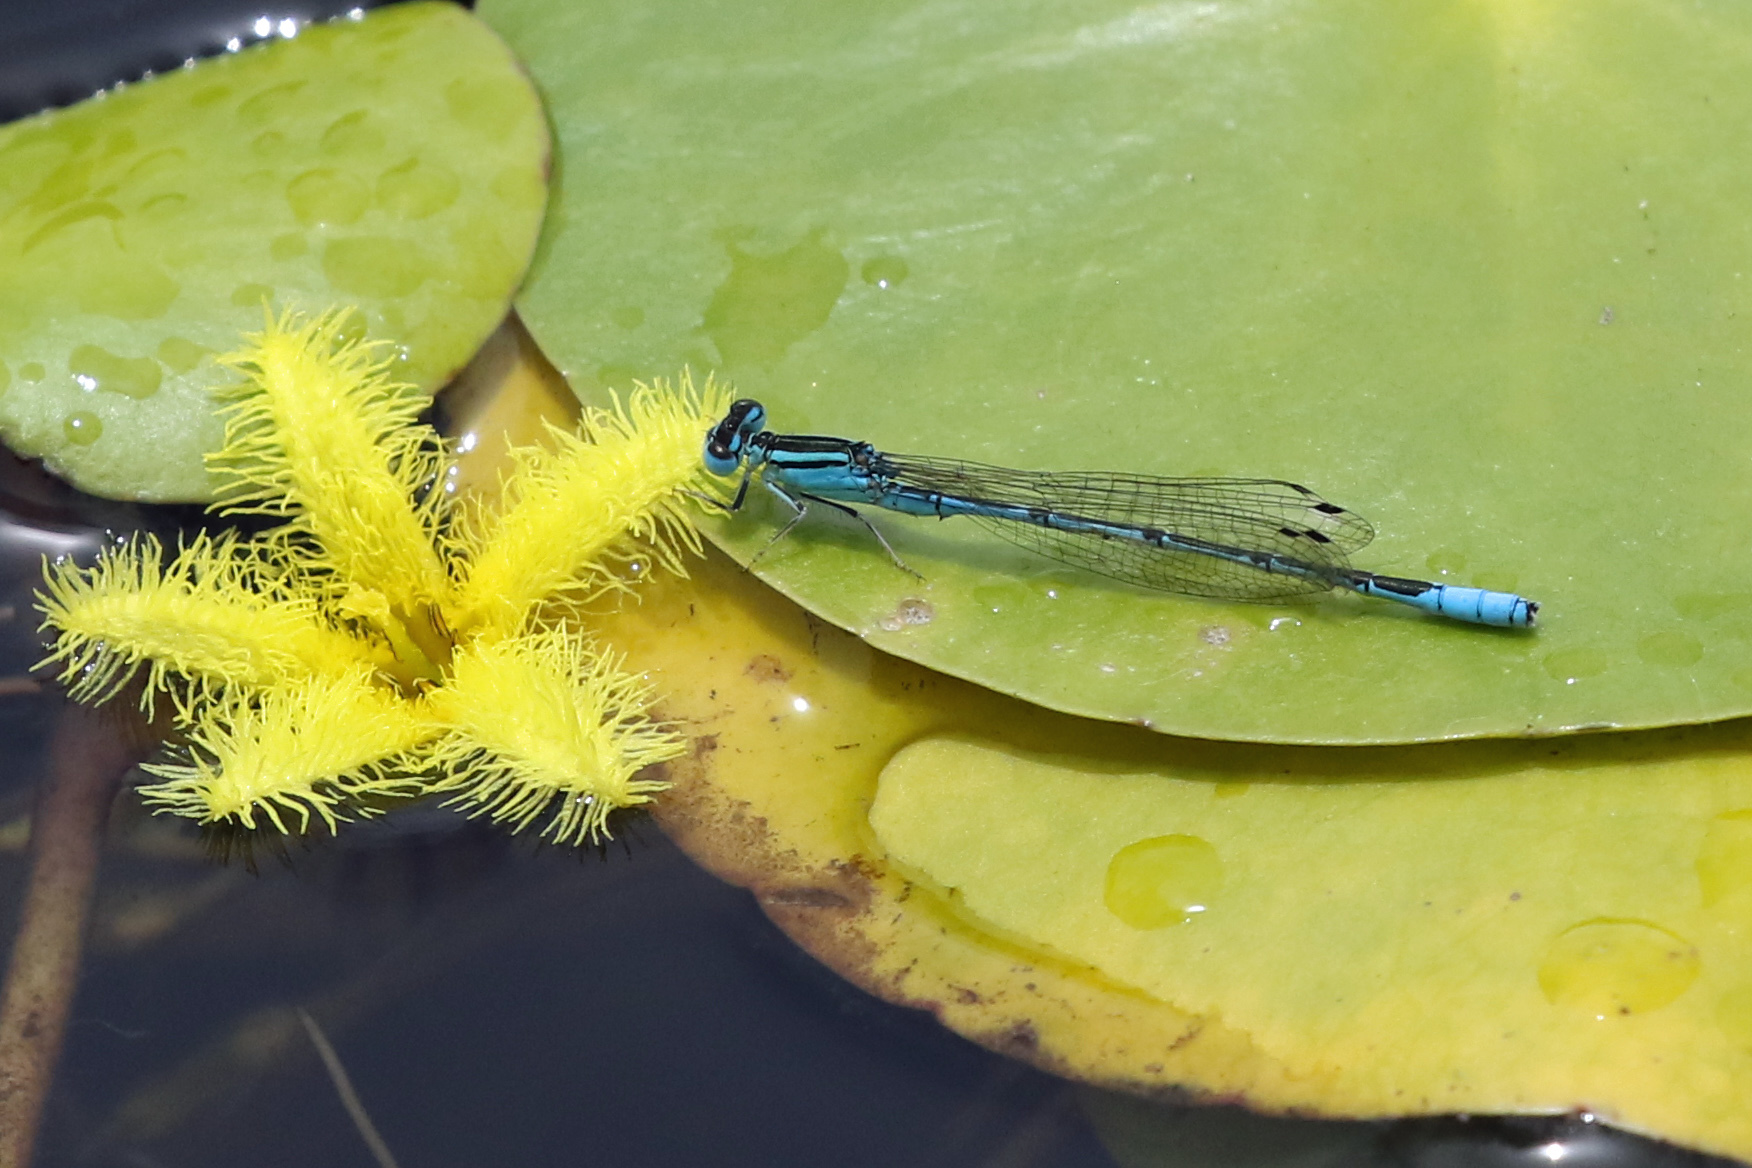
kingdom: Animalia
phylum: Arthropoda
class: Insecta
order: Odonata
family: Coenagrionidae
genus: Africallagma
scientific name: Africallagma glaucum
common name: Swamp bluet
